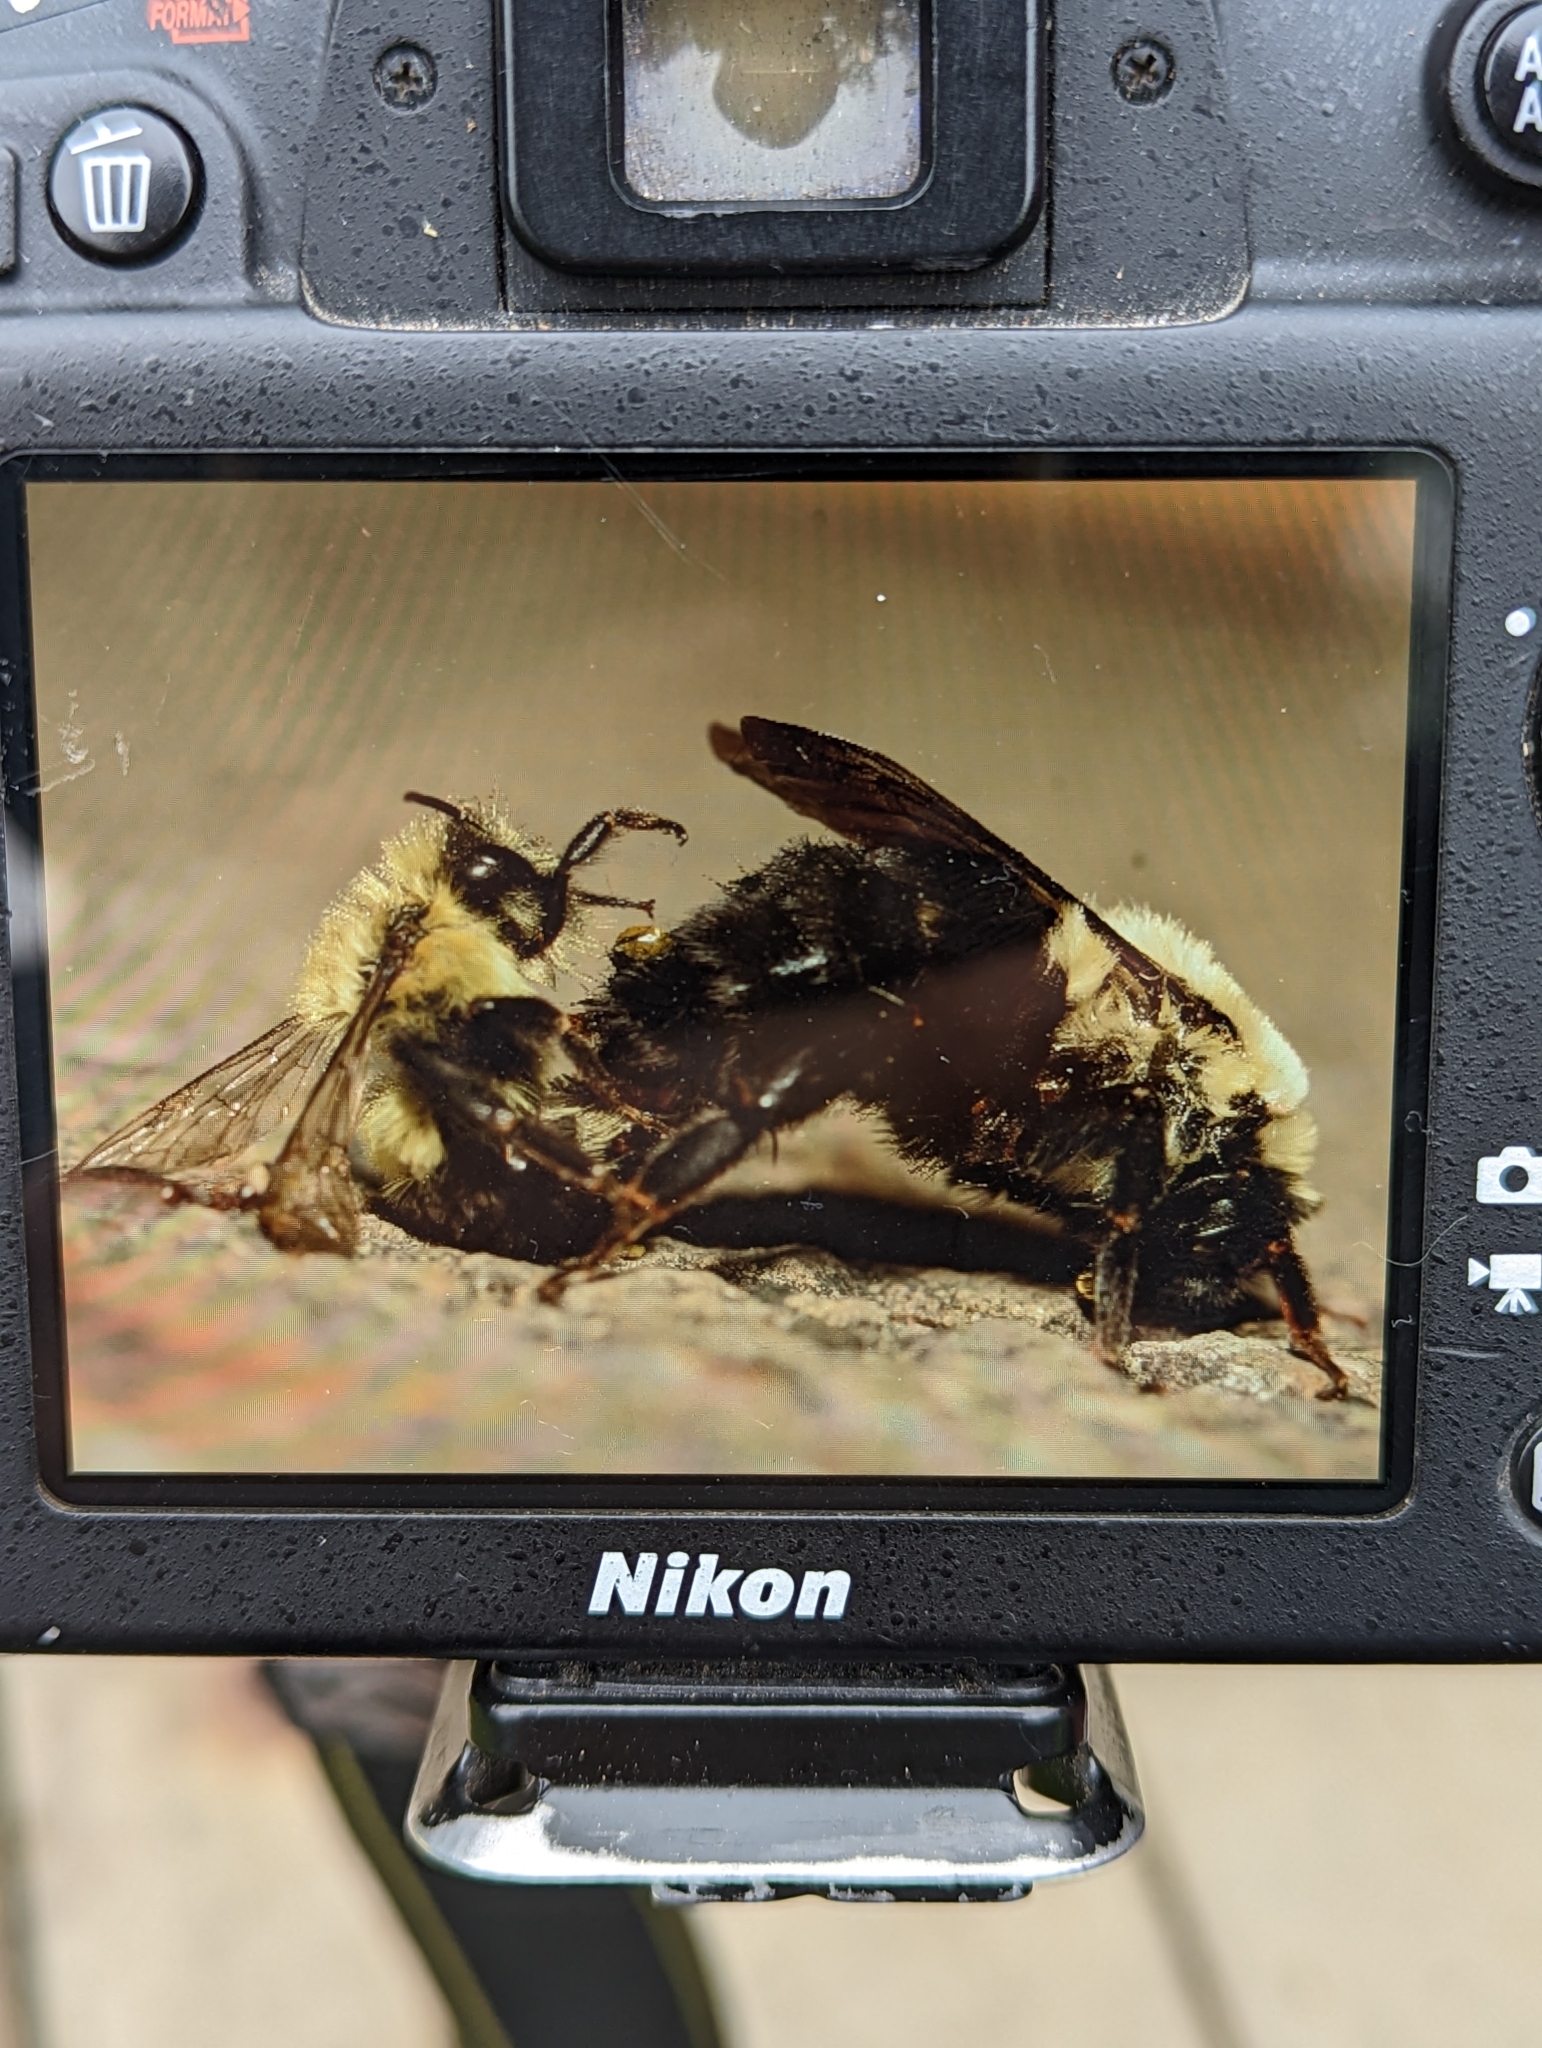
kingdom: Animalia
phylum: Arthropoda
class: Insecta
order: Hymenoptera
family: Apidae
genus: Bombus
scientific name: Bombus impatiens
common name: Common eastern bumble bee
